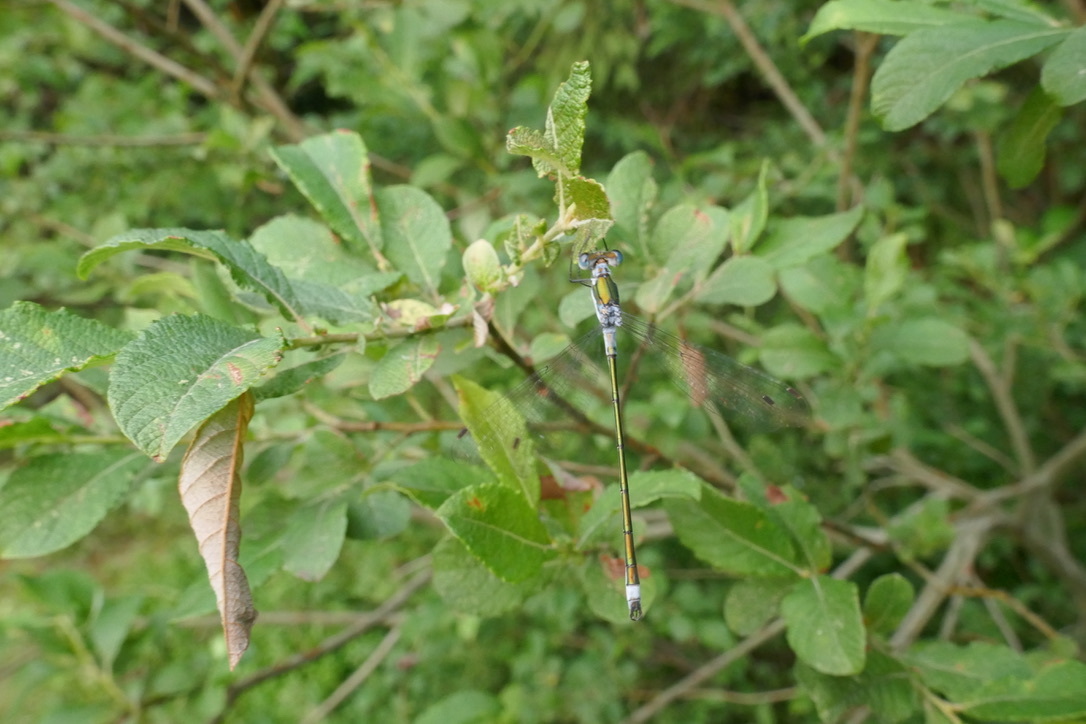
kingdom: Animalia
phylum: Arthropoda
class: Insecta
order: Odonata
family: Lestidae
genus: Lestes
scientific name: Lestes sponsa
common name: Common spreadwing
